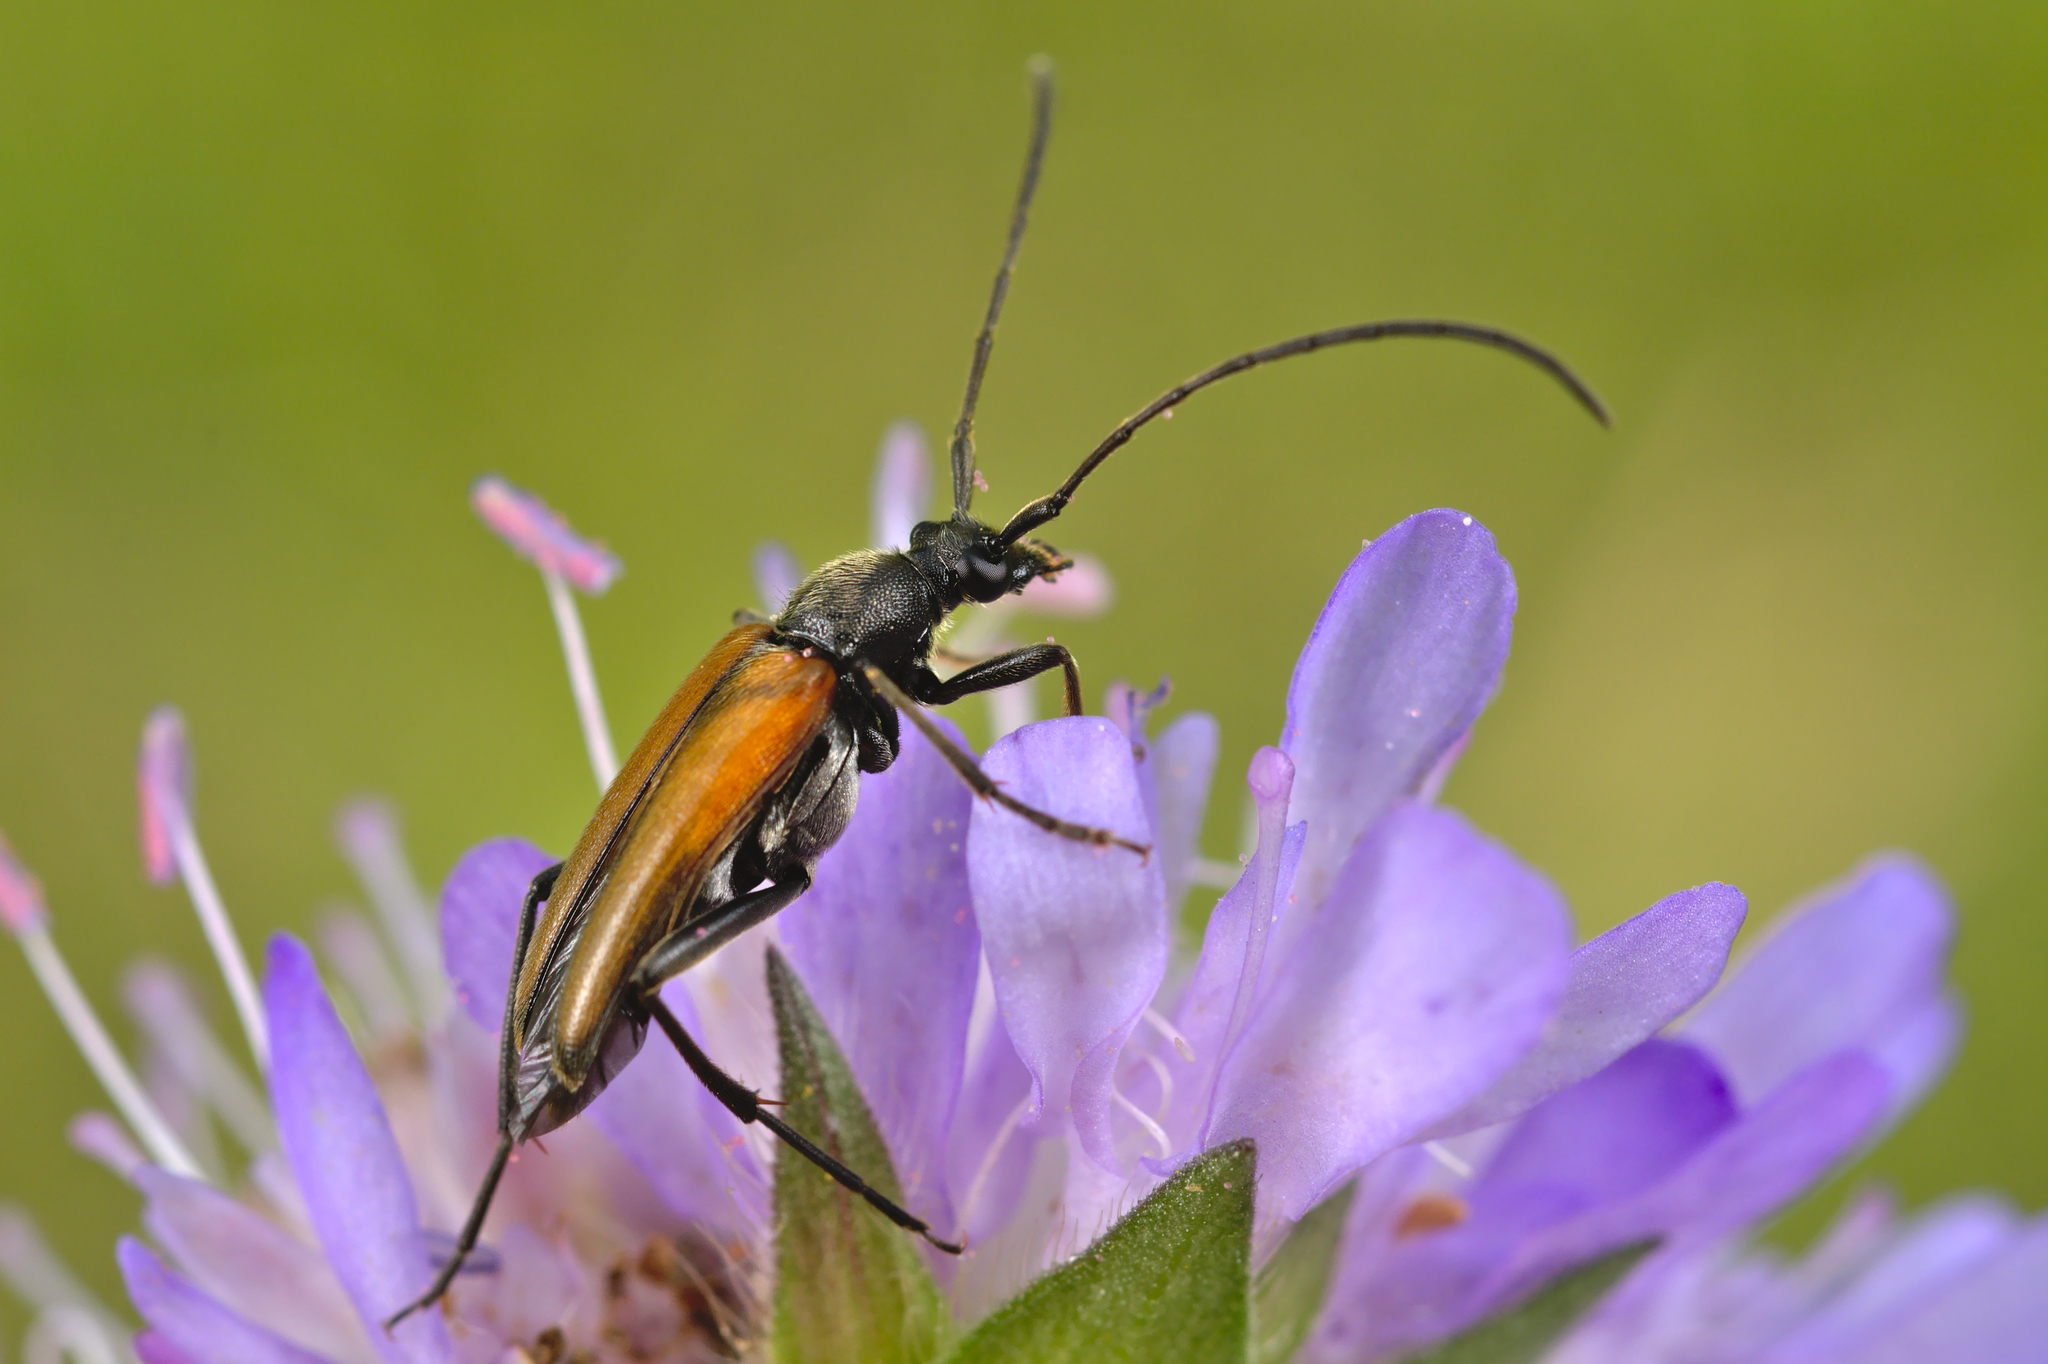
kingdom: Animalia
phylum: Arthropoda
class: Insecta
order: Coleoptera
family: Cerambycidae
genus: Stenurella
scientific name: Stenurella melanura
